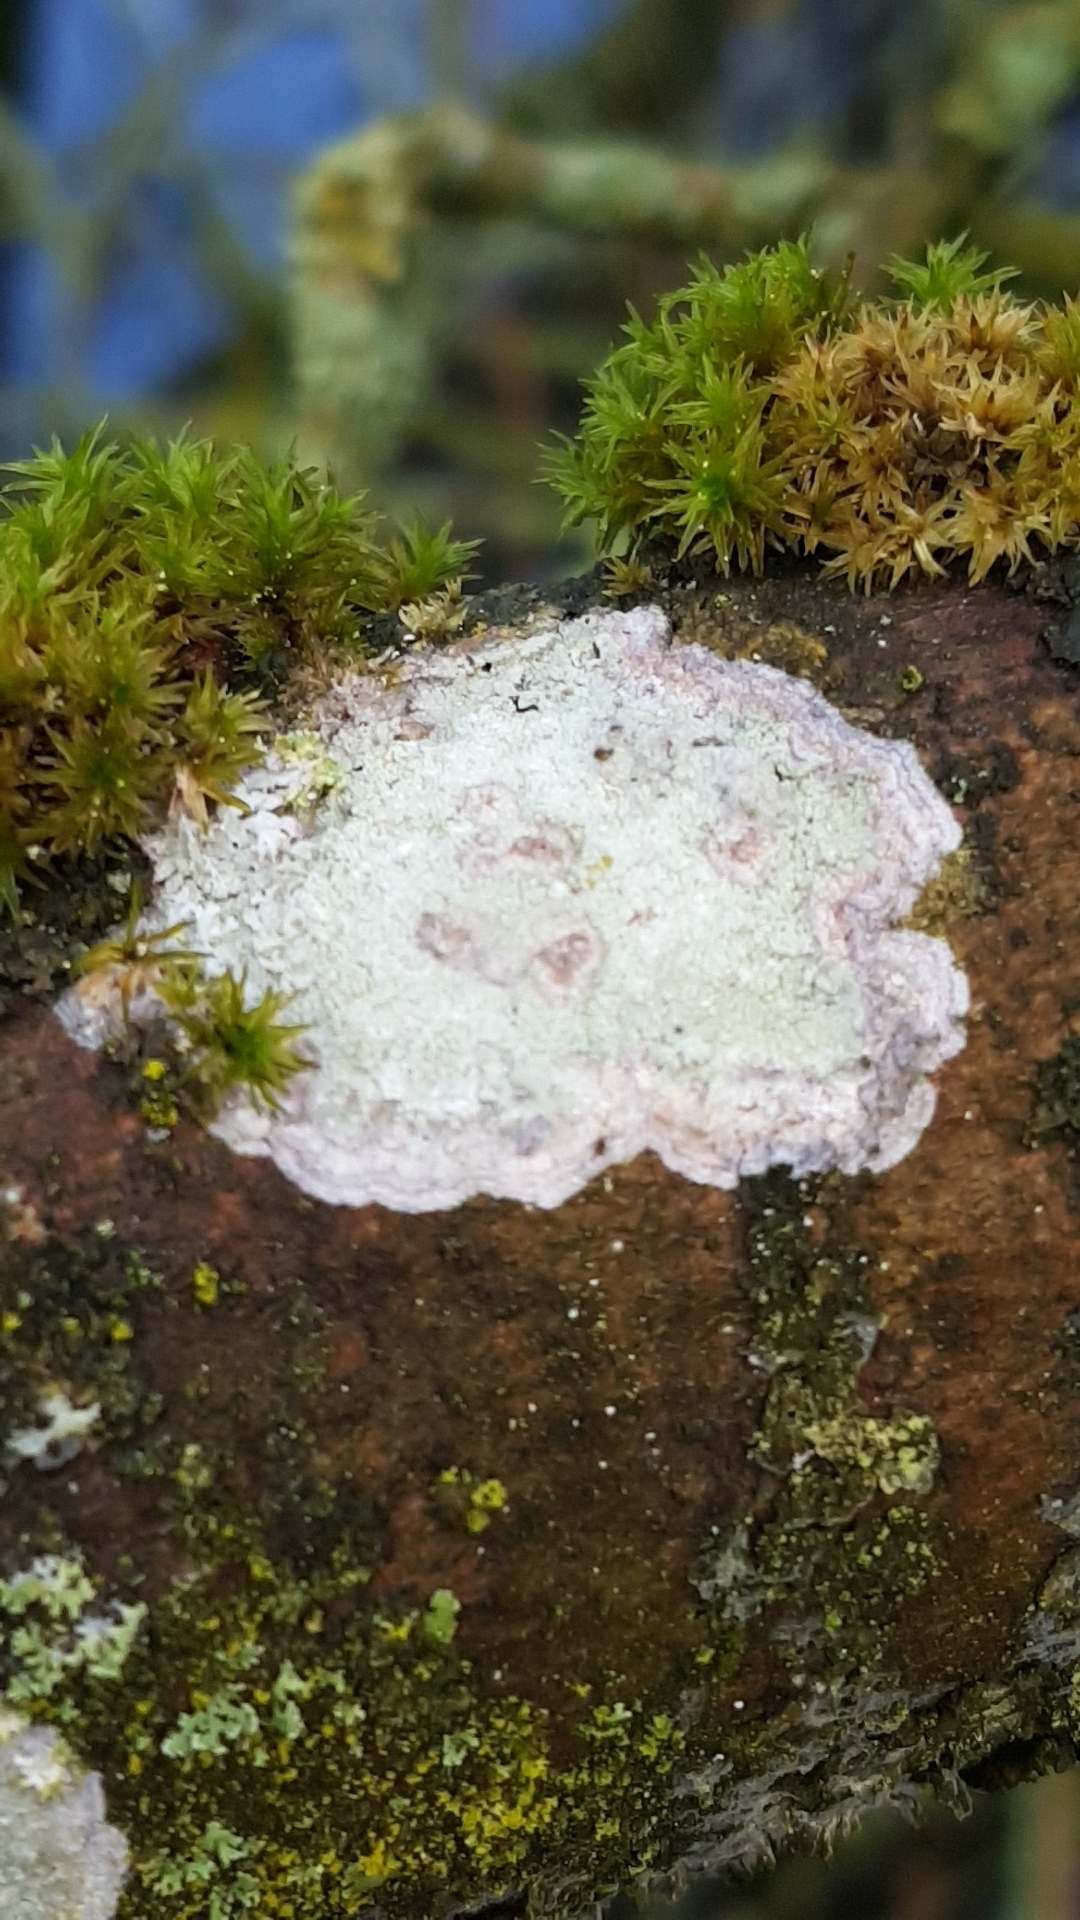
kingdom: Fungi
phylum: Ascomycota
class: Lecanoromycetes
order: Ostropales
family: Phlyctidaceae
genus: Phlyctis
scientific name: Phlyctis argena
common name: Whitewash lichen
